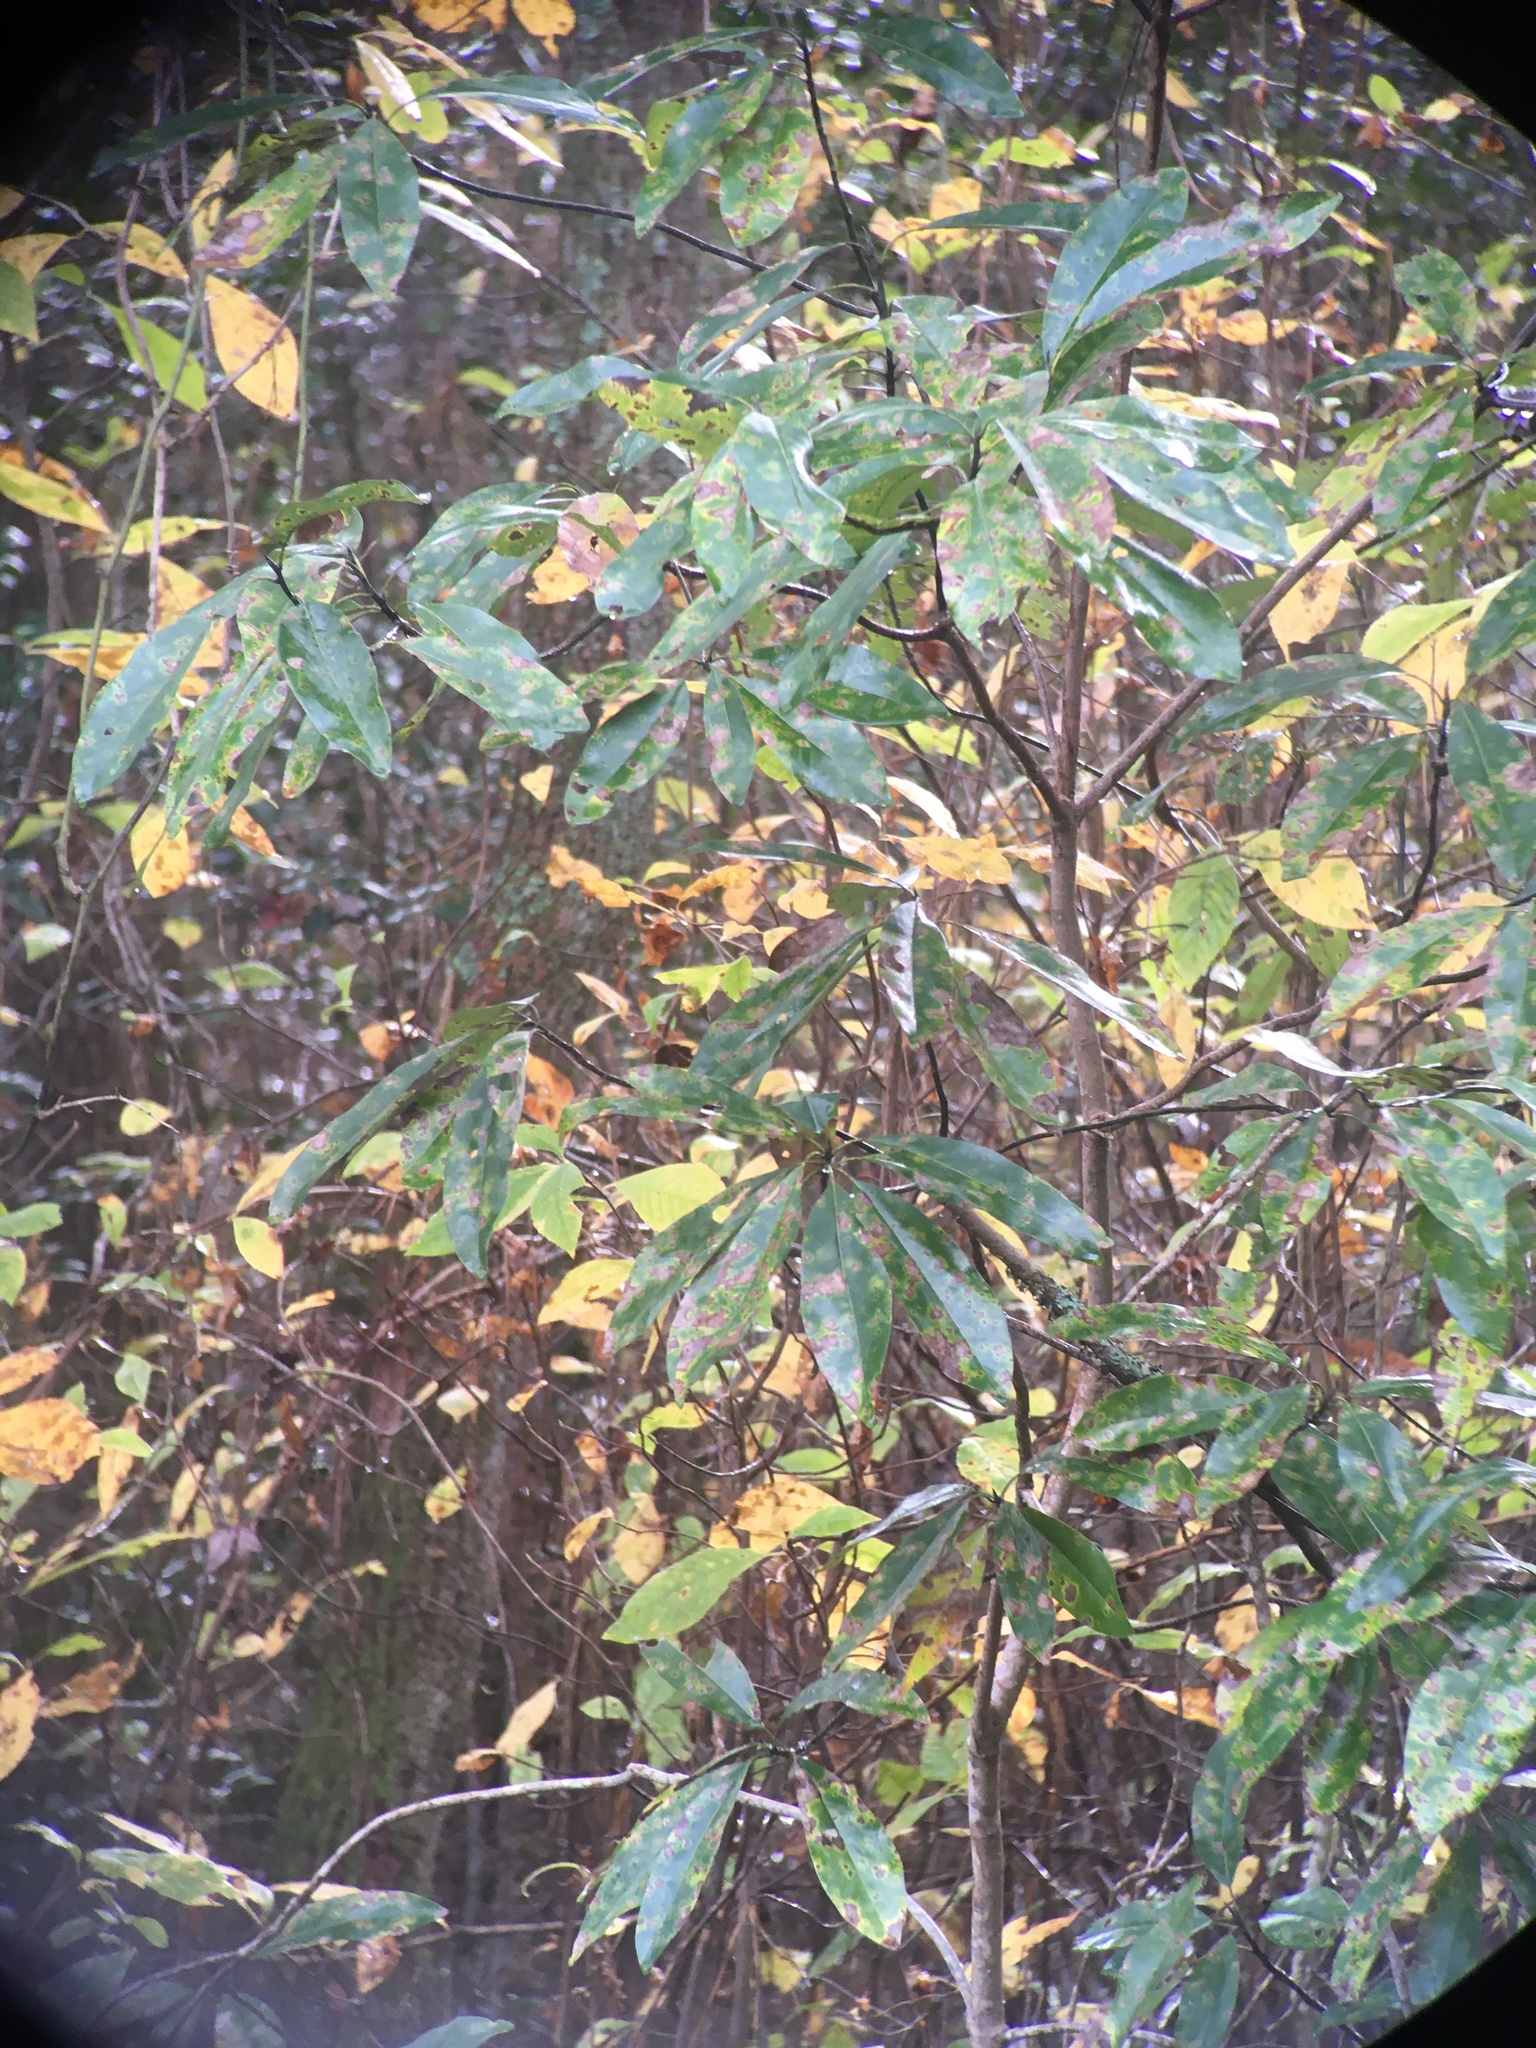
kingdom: Plantae
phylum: Tracheophyta
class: Magnoliopsida
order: Magnoliales
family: Magnoliaceae
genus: Magnolia
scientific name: Magnolia virginiana
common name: Swamp bay
